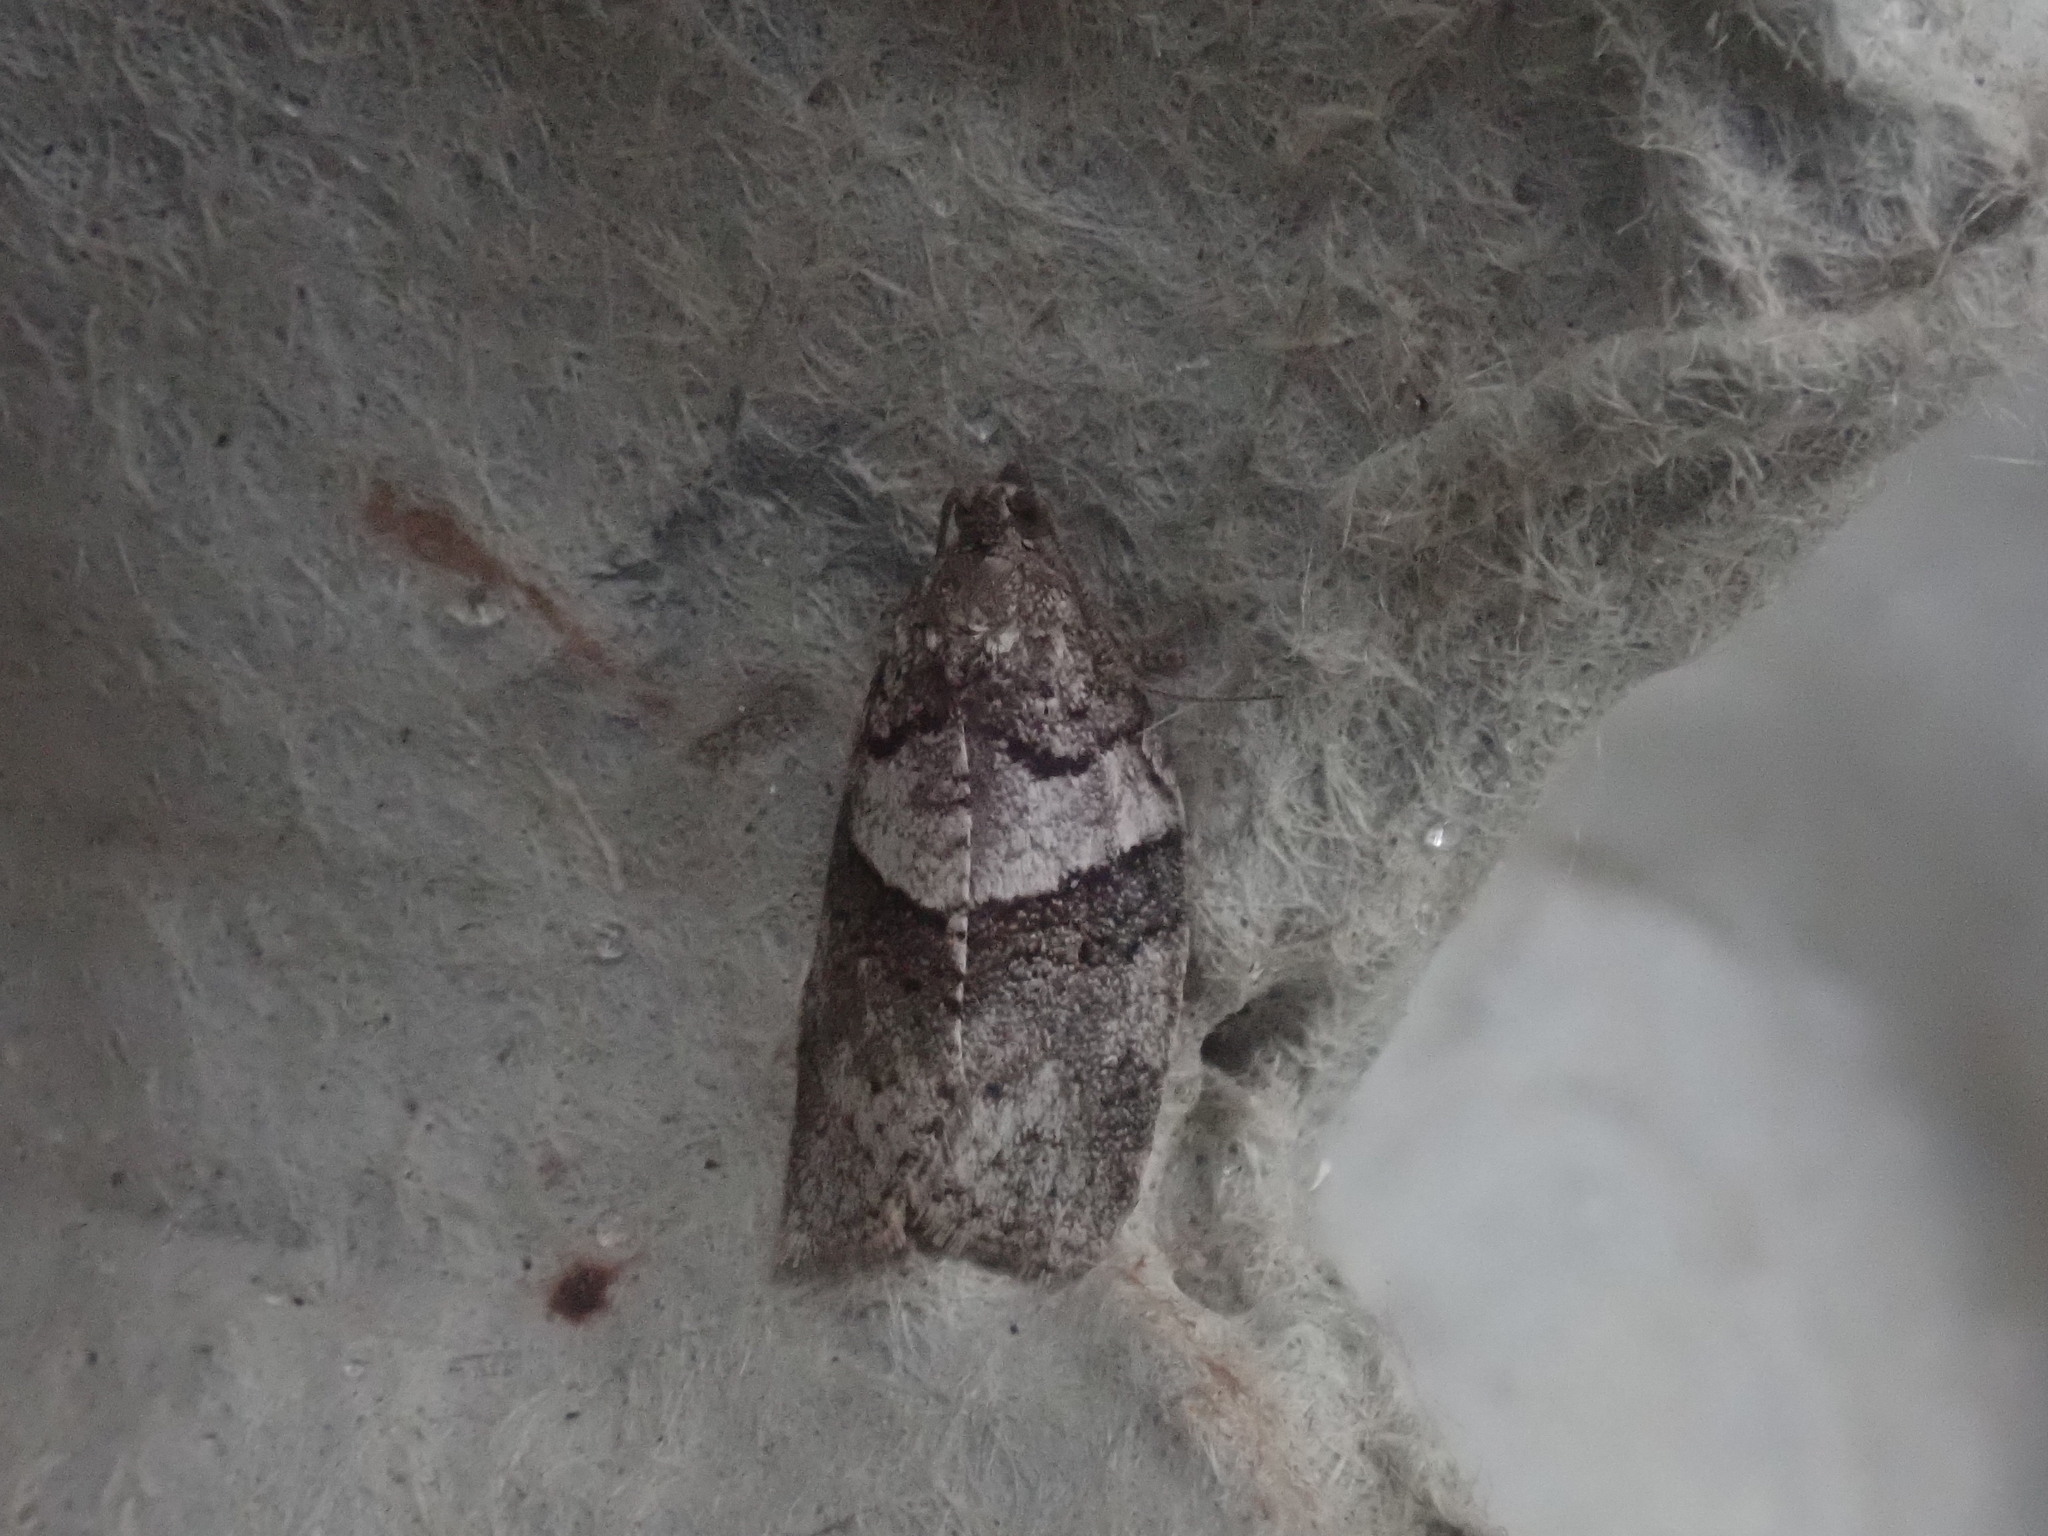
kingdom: Animalia
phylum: Arthropoda
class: Insecta
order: Lepidoptera
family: Tortricidae
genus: Syndemis
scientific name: Syndemis afflictana
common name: Gray leafroller moth
